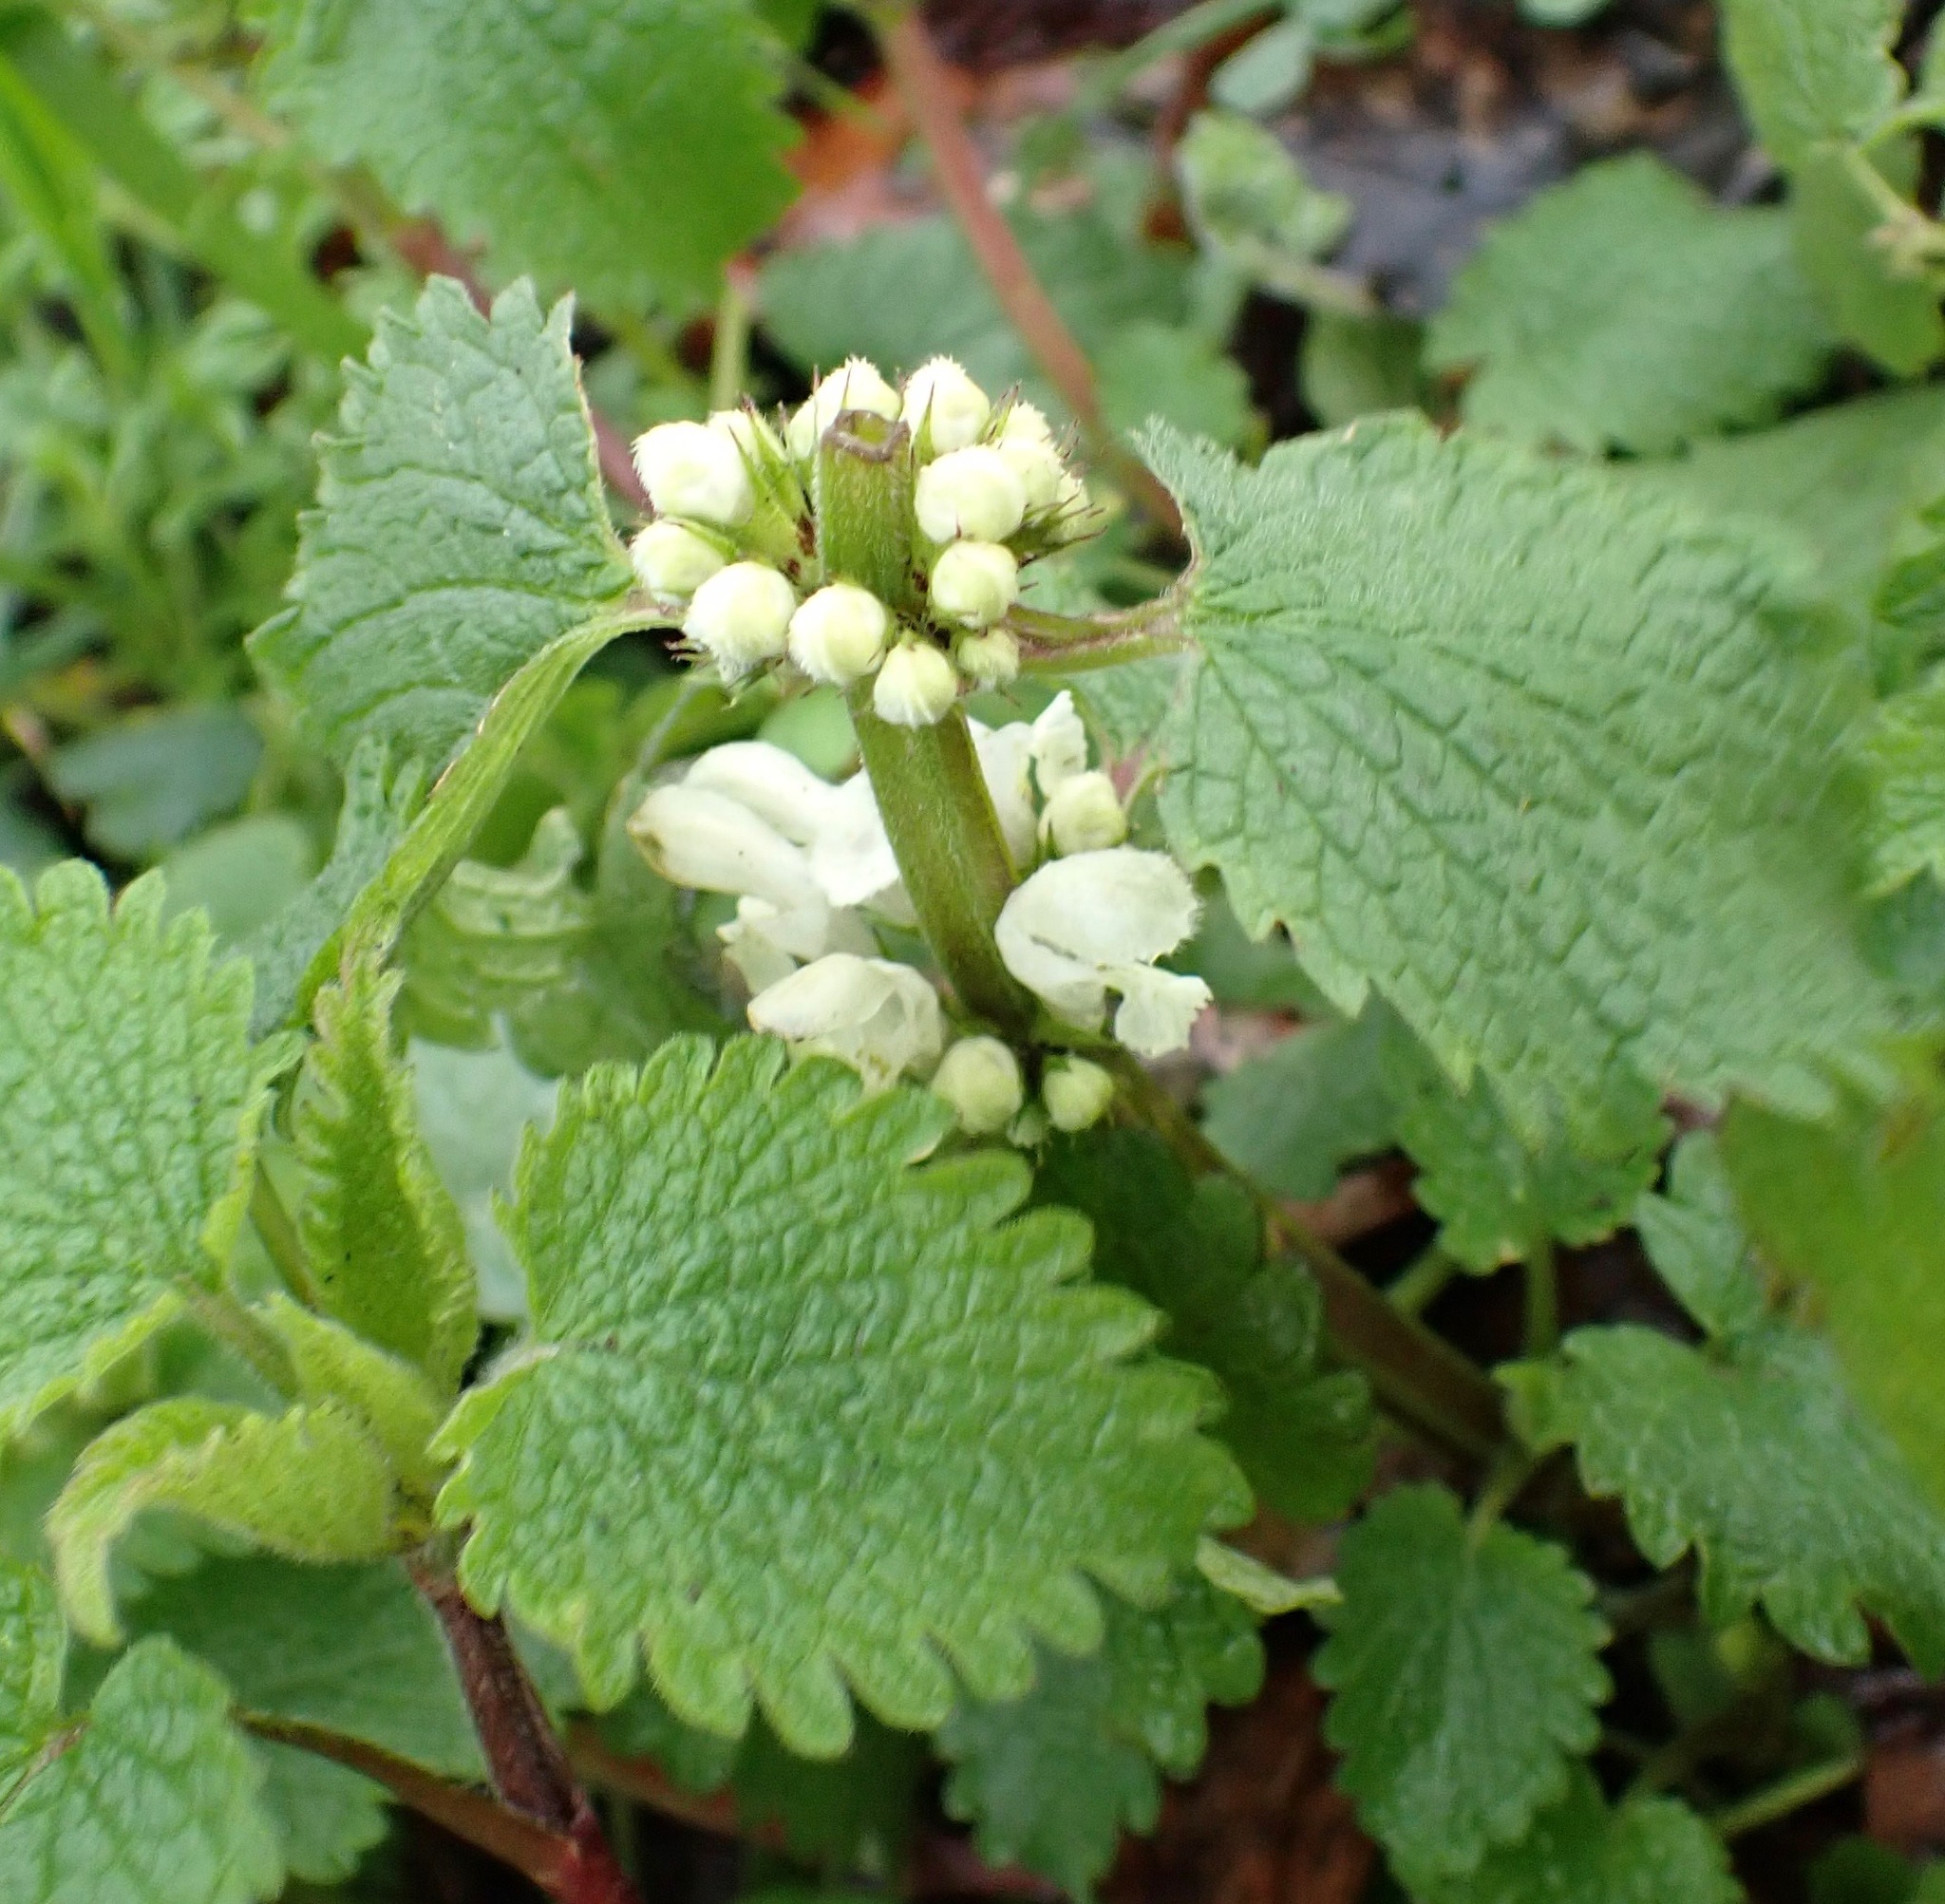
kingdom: Plantae
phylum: Tracheophyta
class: Magnoliopsida
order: Lamiales
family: Lamiaceae
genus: Lamium
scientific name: Lamium album
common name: White dead-nettle
